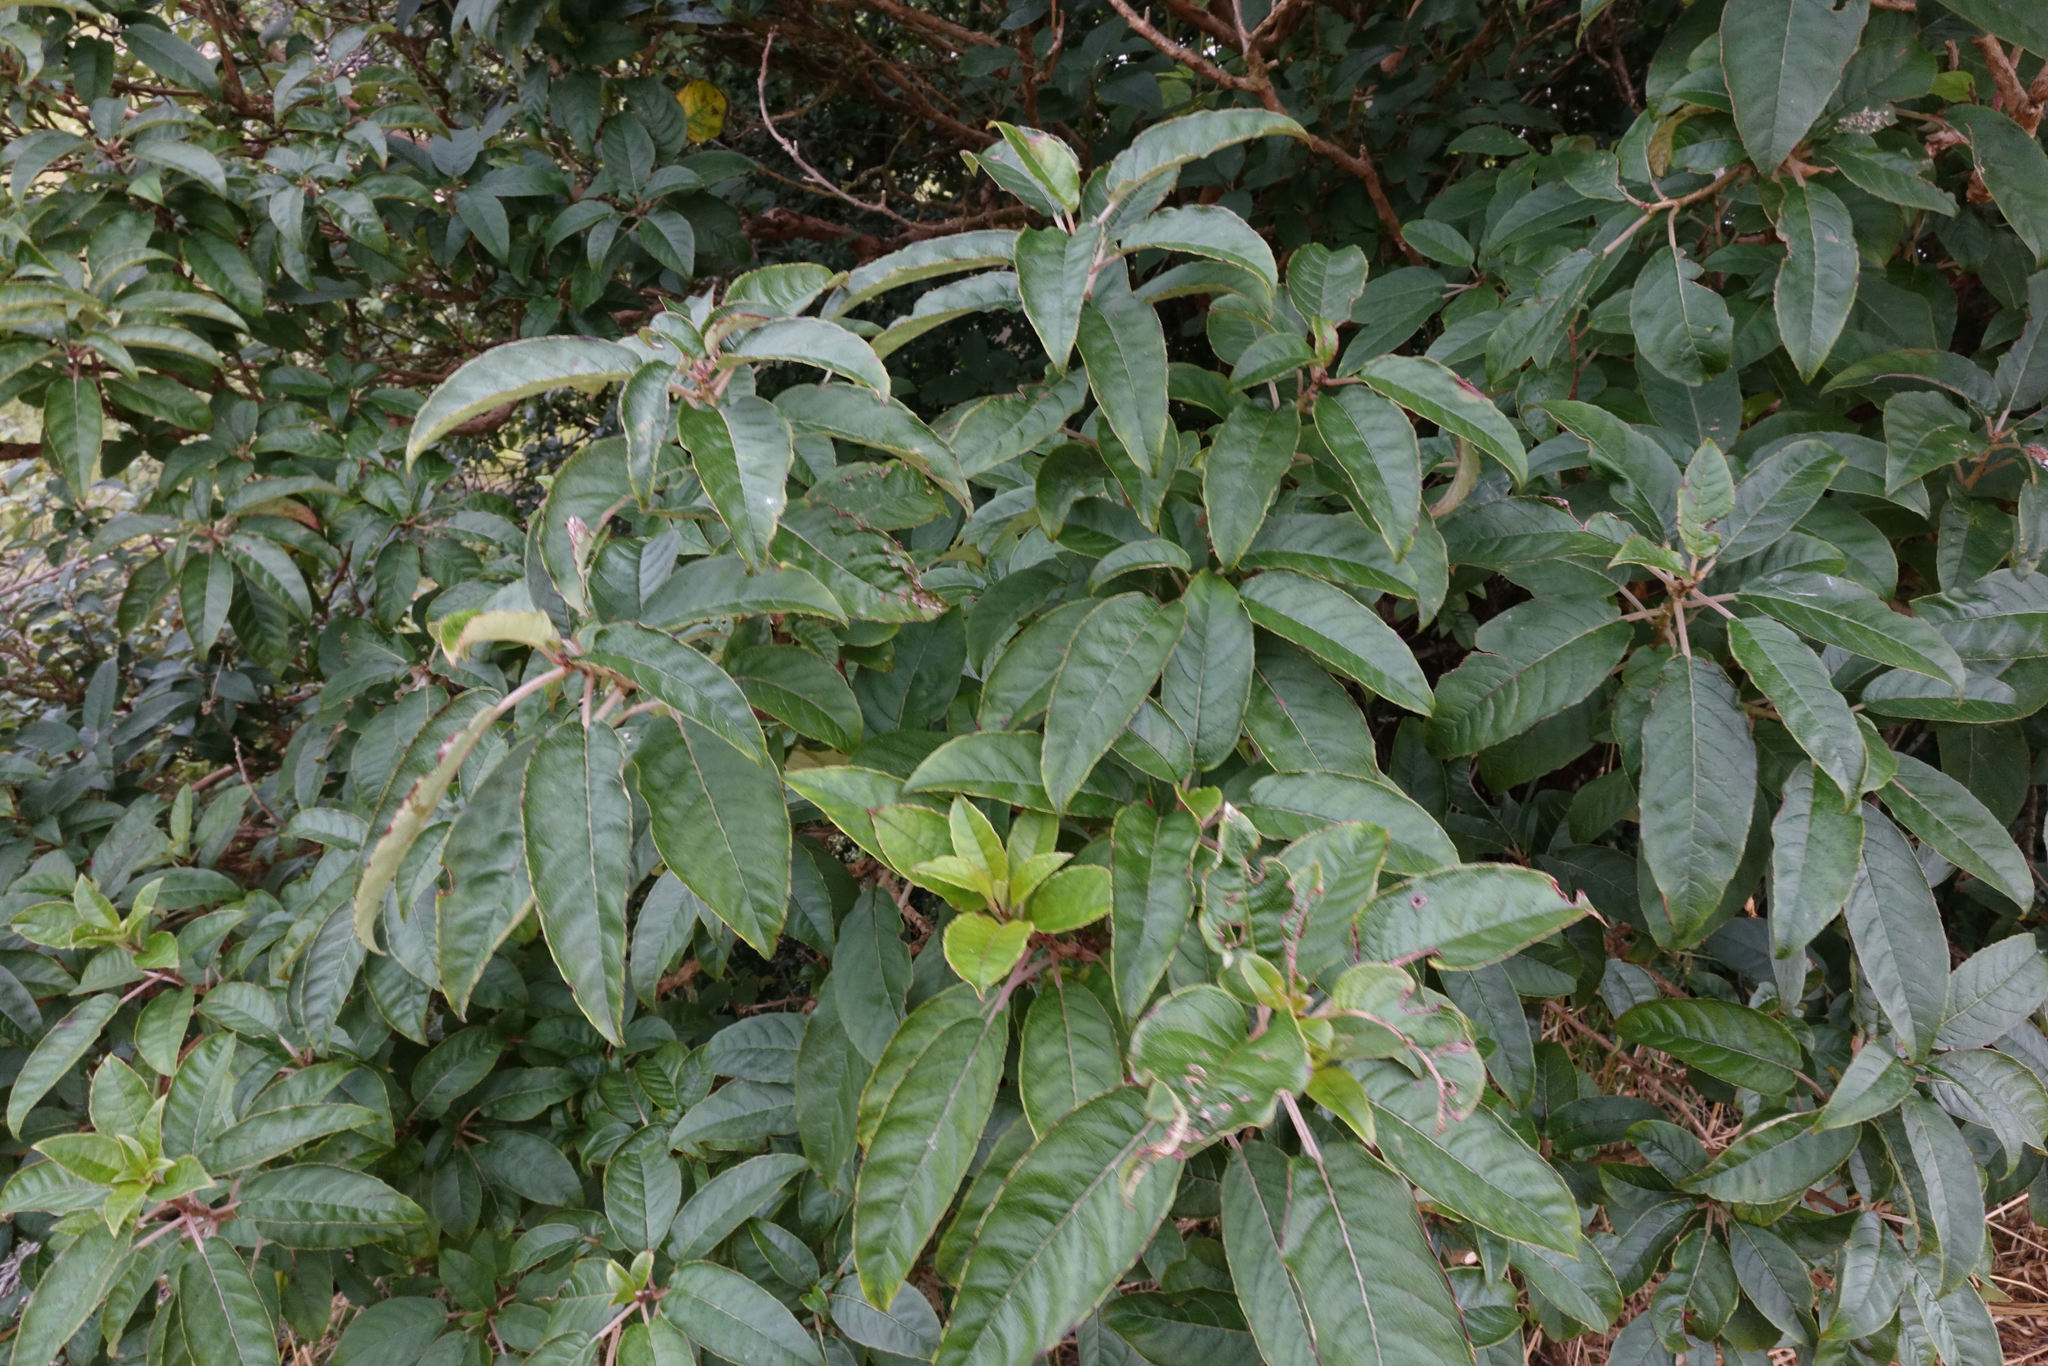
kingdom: Plantae
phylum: Tracheophyta
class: Magnoliopsida
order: Myrtales
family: Onagraceae
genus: Fuchsia
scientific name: Fuchsia excorticata
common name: Tree fuchsia
